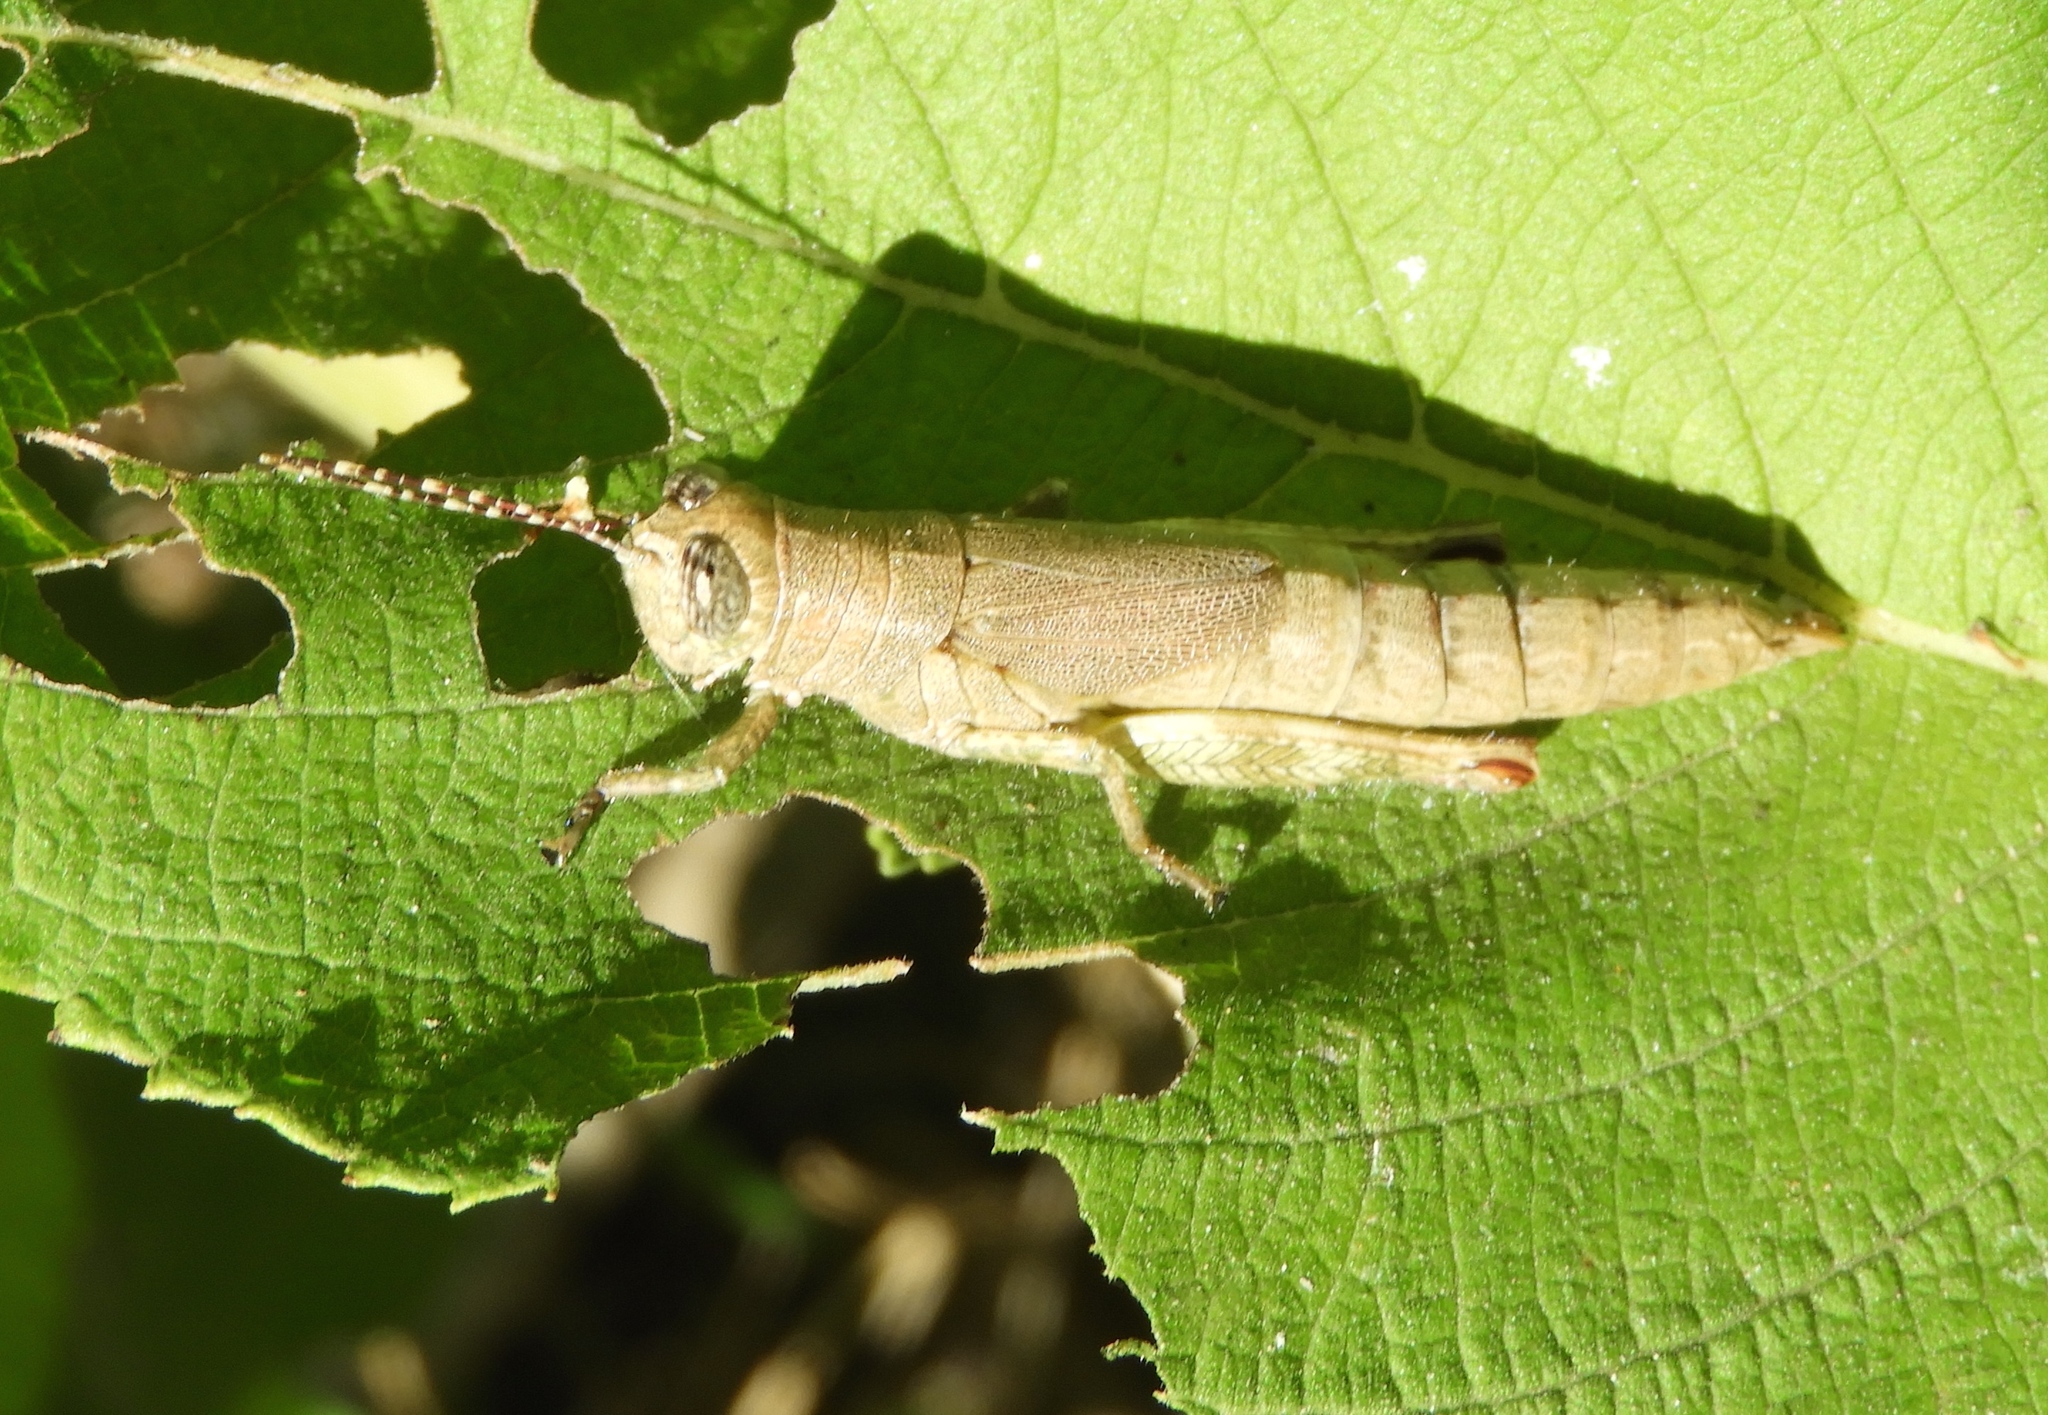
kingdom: Animalia
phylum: Arthropoda
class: Insecta
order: Orthoptera
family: Acrididae
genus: Proctolabus
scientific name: Proctolabus cerciatus
